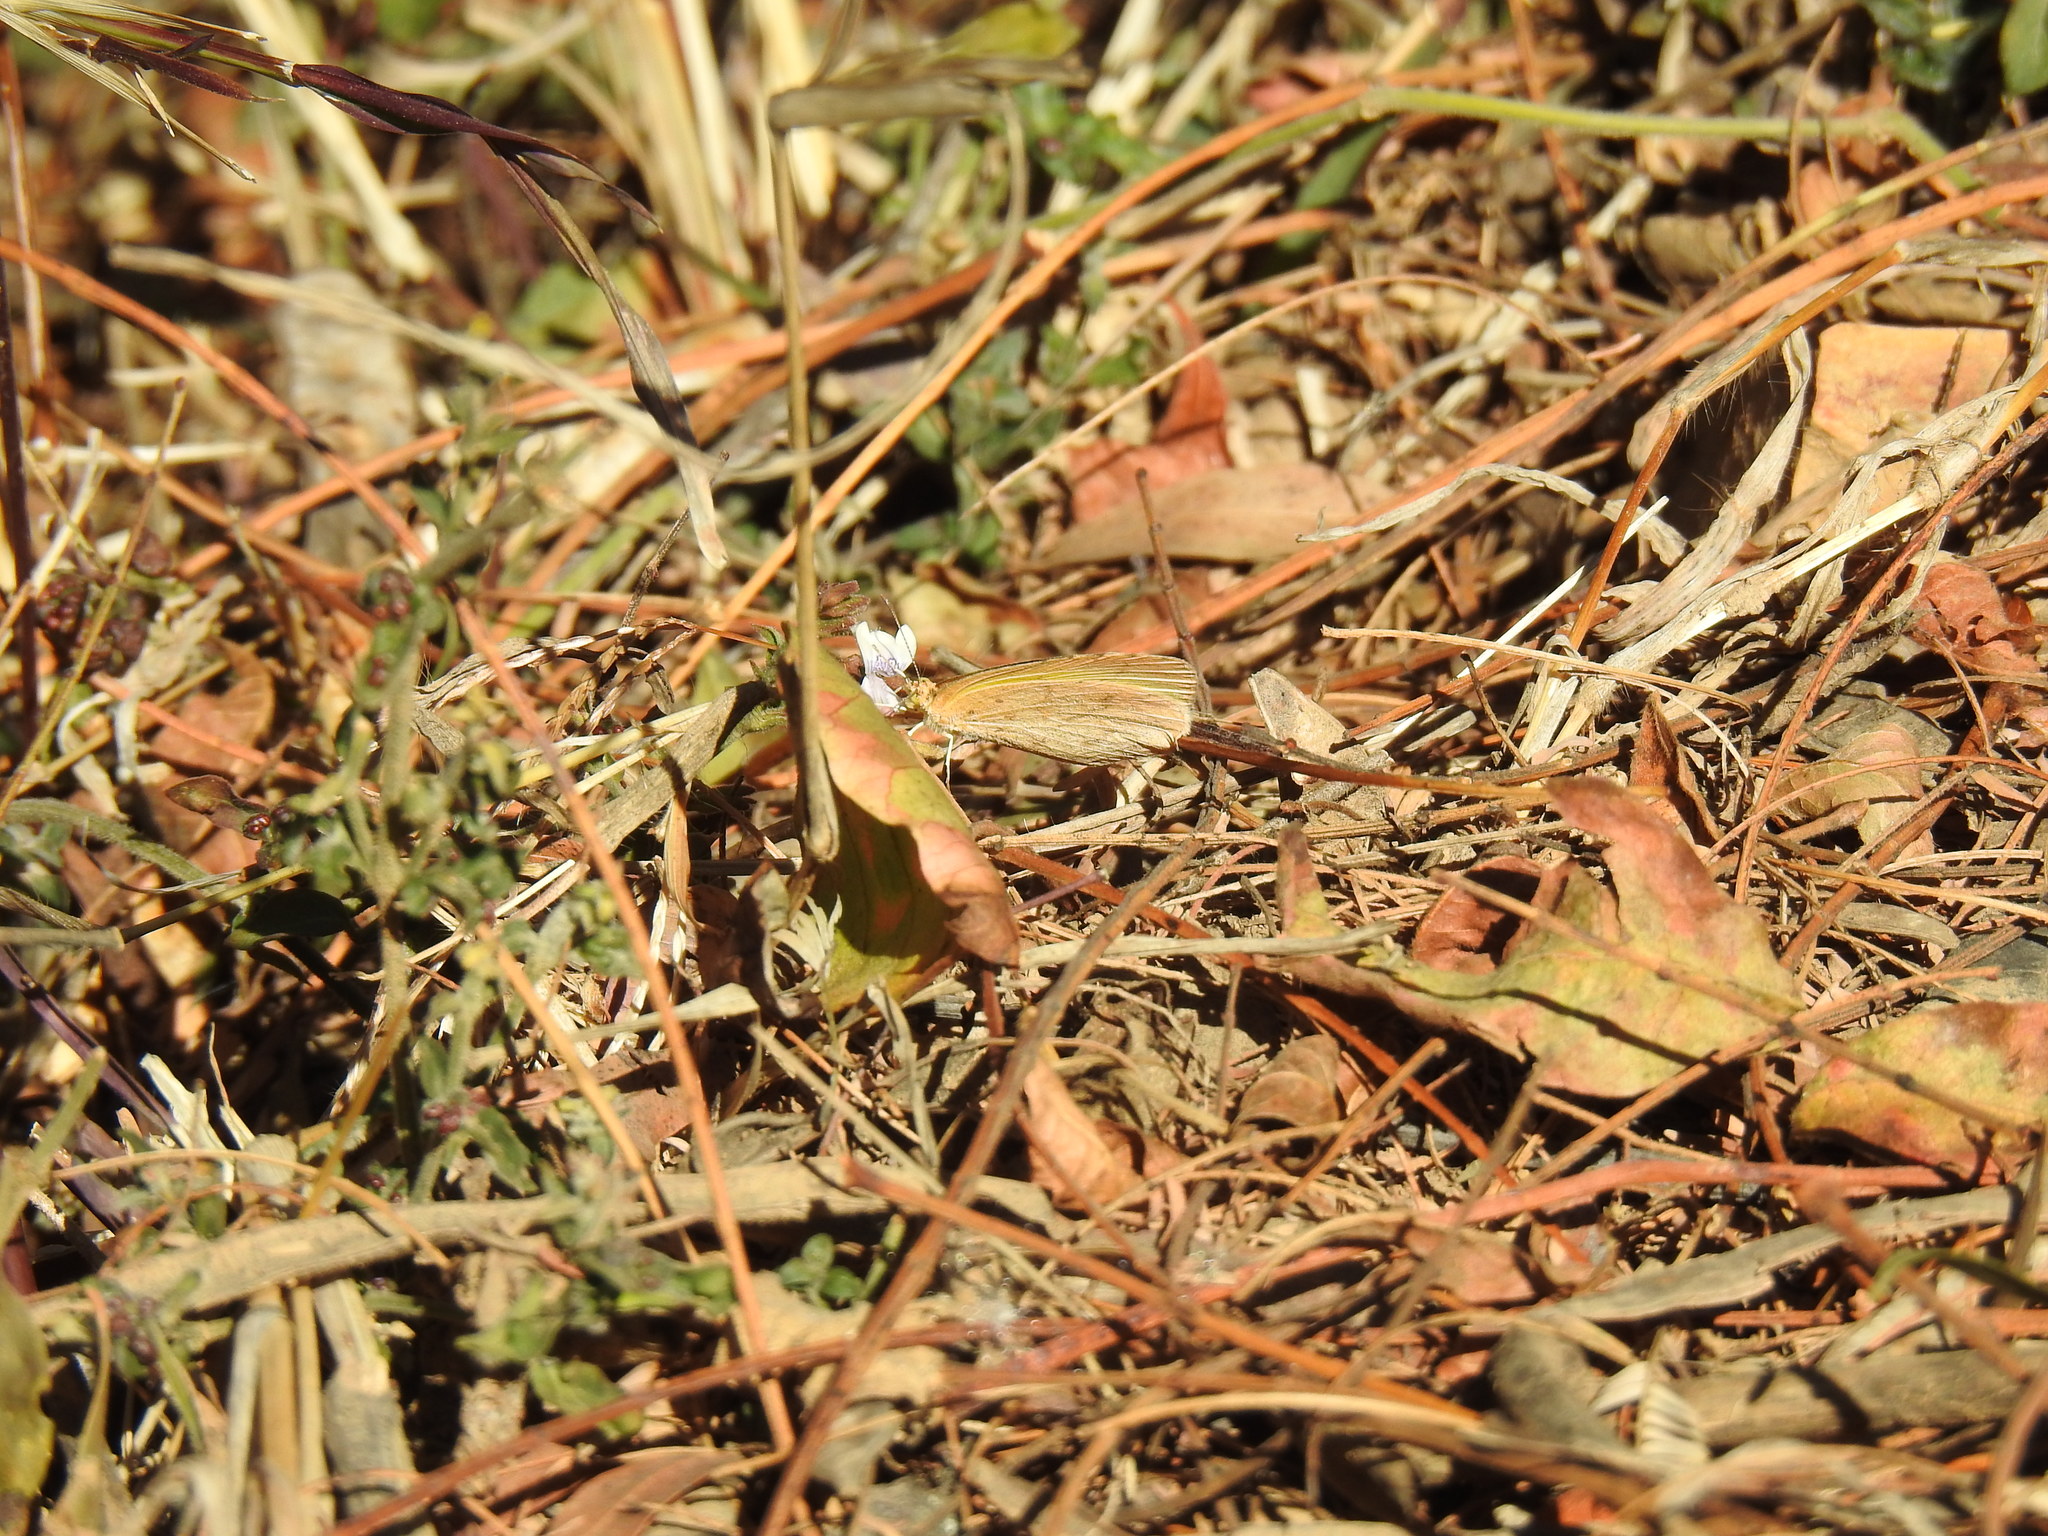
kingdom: Animalia
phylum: Arthropoda
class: Insecta
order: Lepidoptera
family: Pieridae
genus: Eurema
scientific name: Eurema brigitta
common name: Small grass yellow
